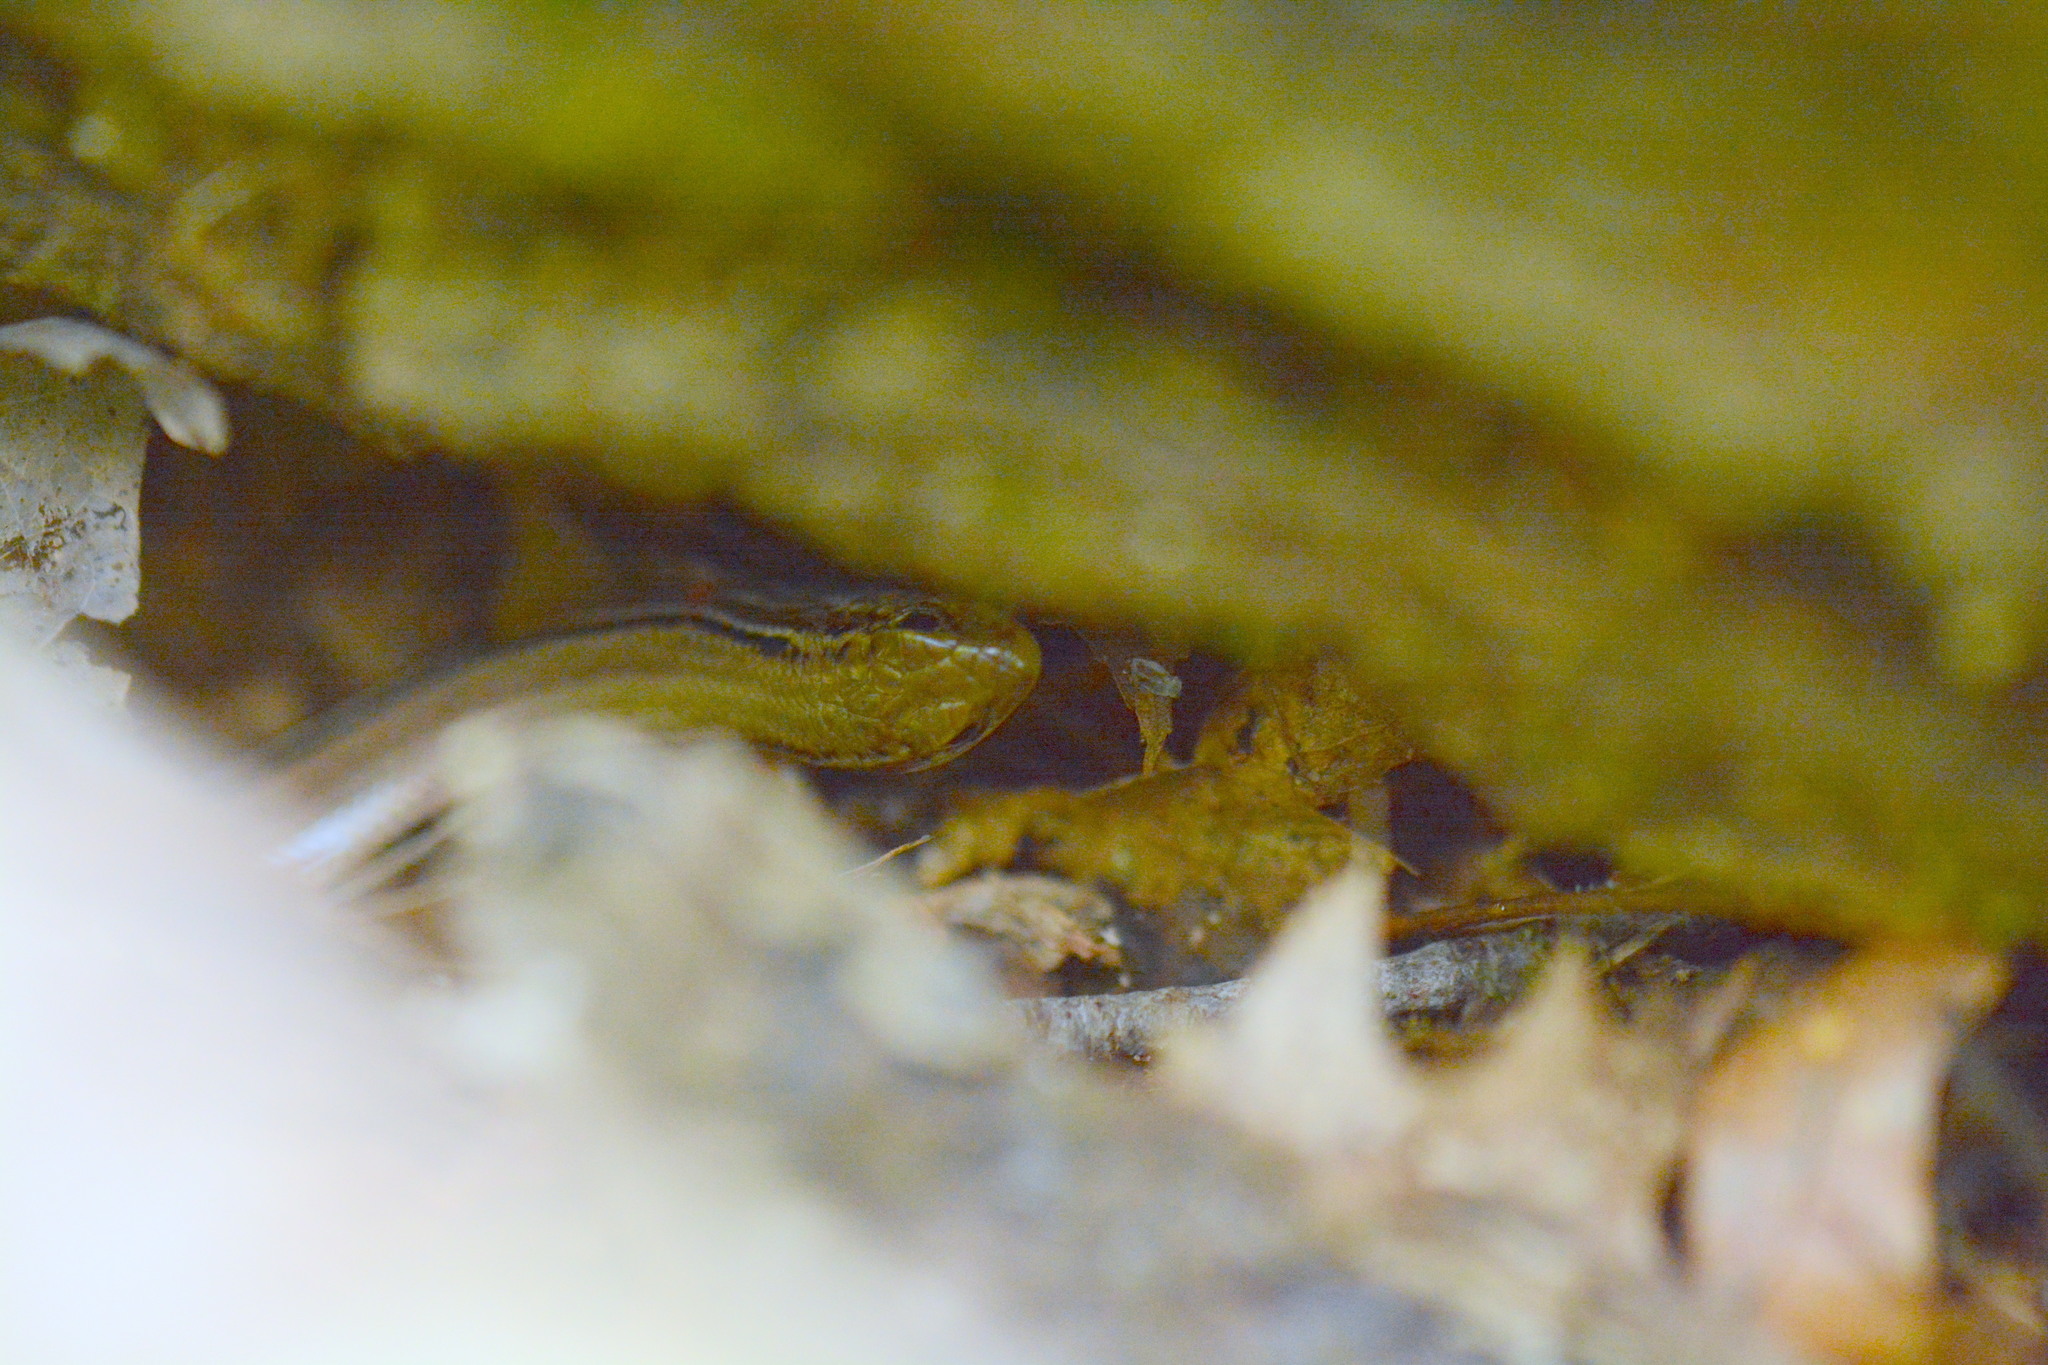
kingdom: Animalia
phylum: Chordata
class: Squamata
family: Scincidae
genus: Plestiodon
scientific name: Plestiodon septentrionalis
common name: Northern prairie skink
